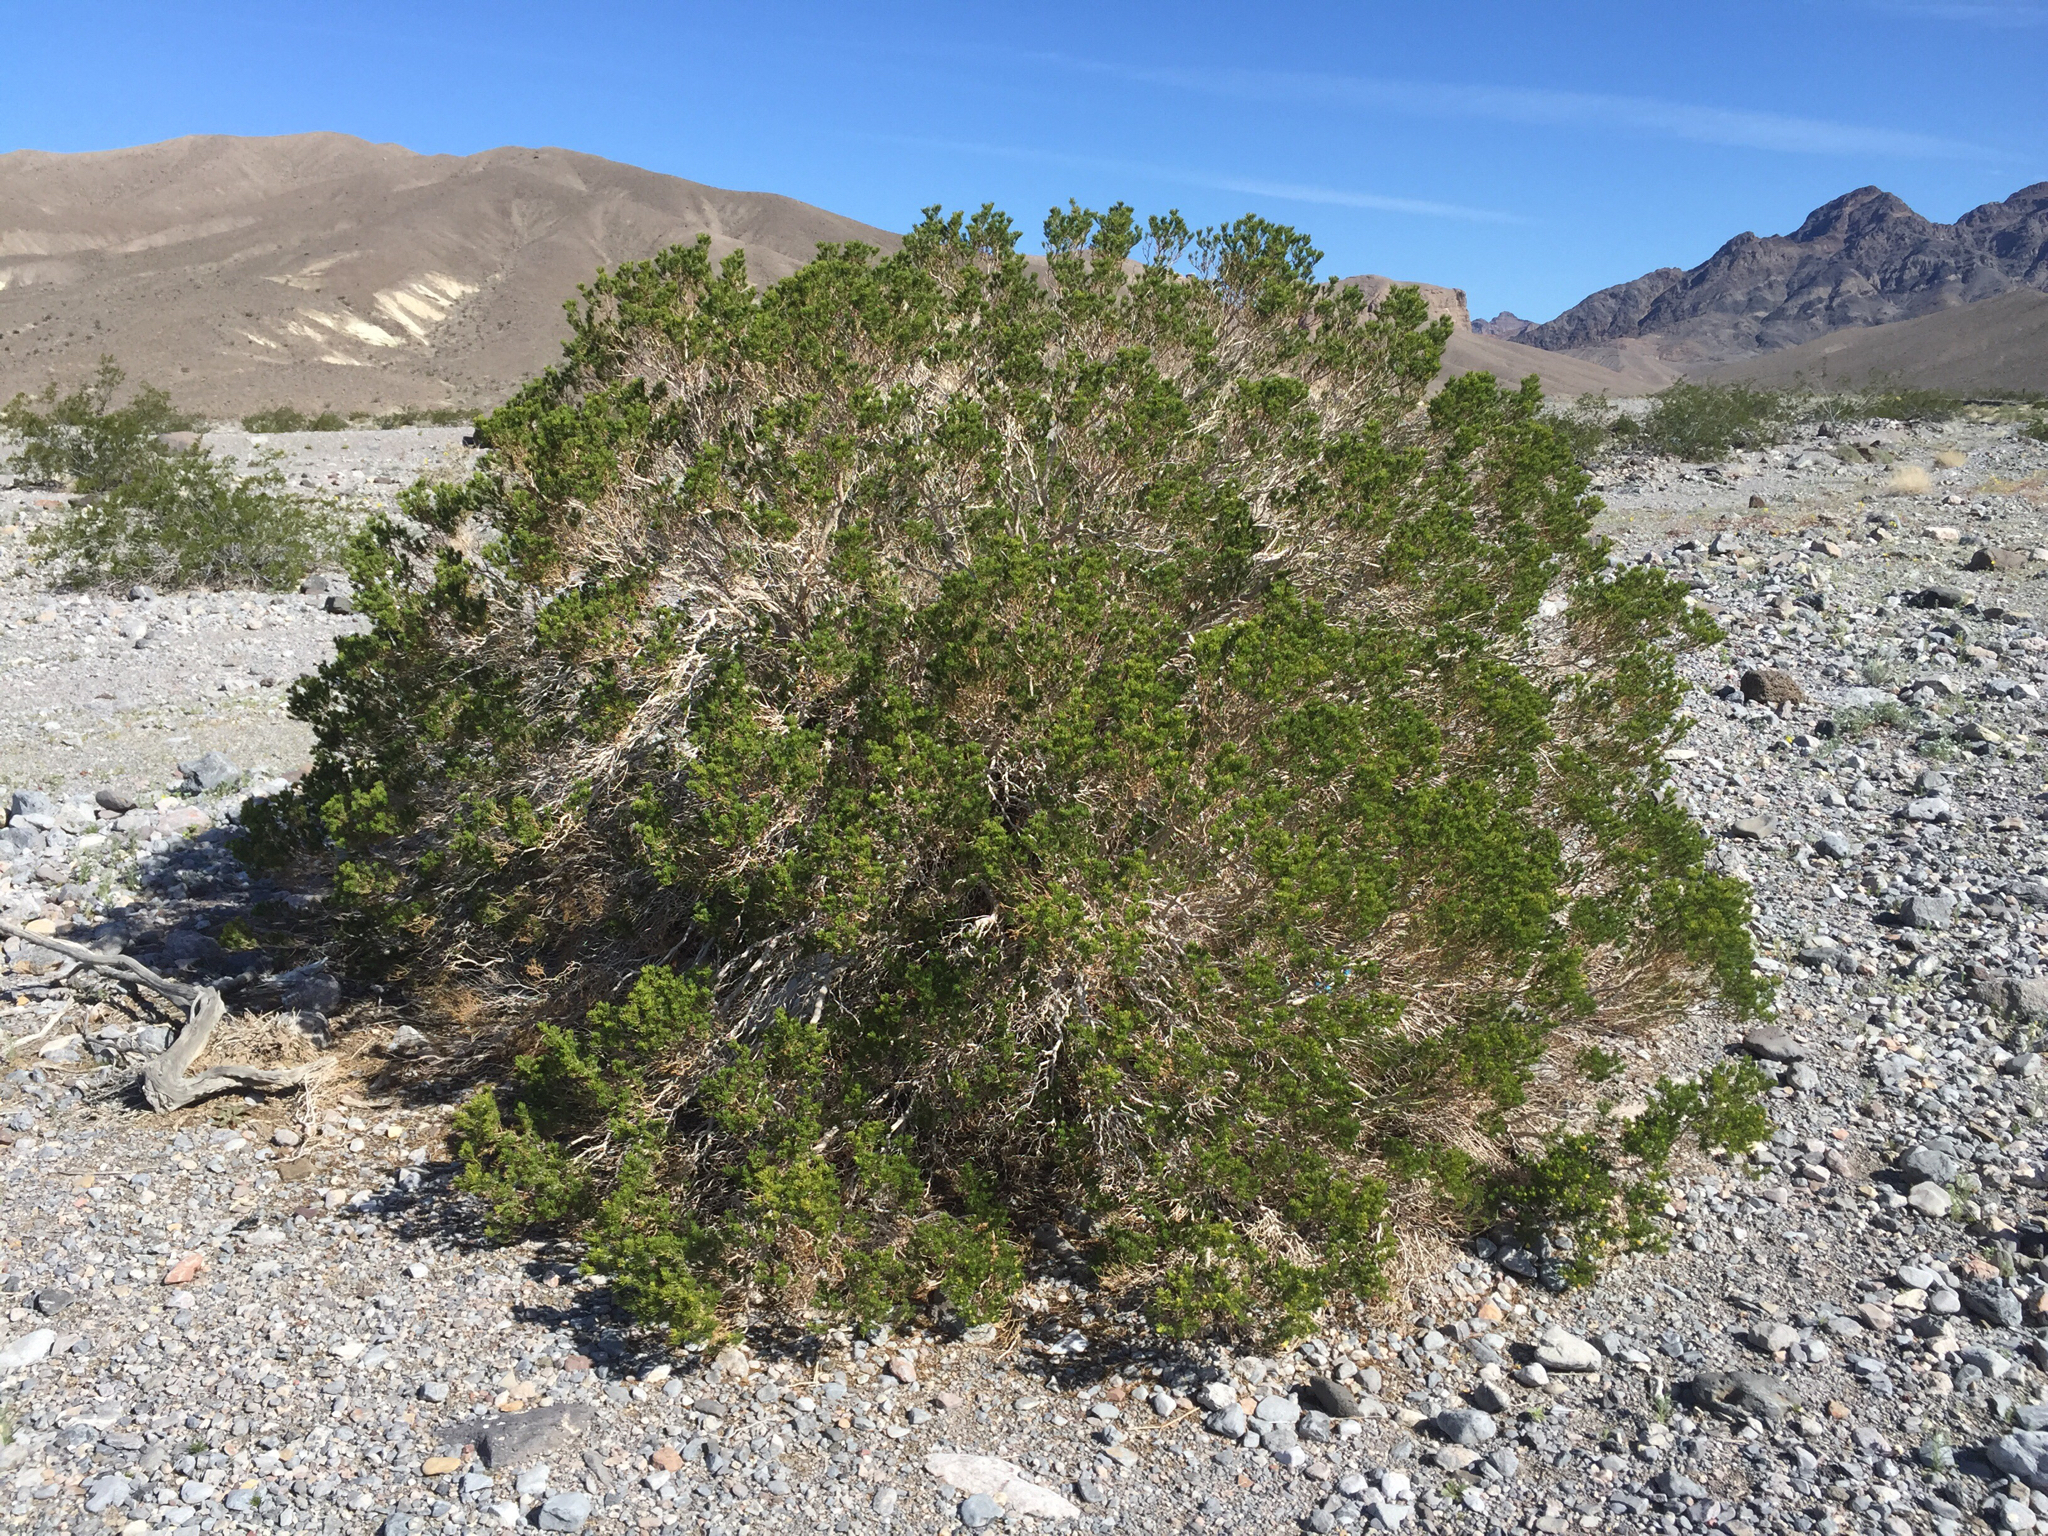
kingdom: Plantae
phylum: Tracheophyta
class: Magnoliopsida
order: Asterales
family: Asteraceae
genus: Peucephyllum
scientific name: Peucephyllum schottii
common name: Pygmy-cedar
